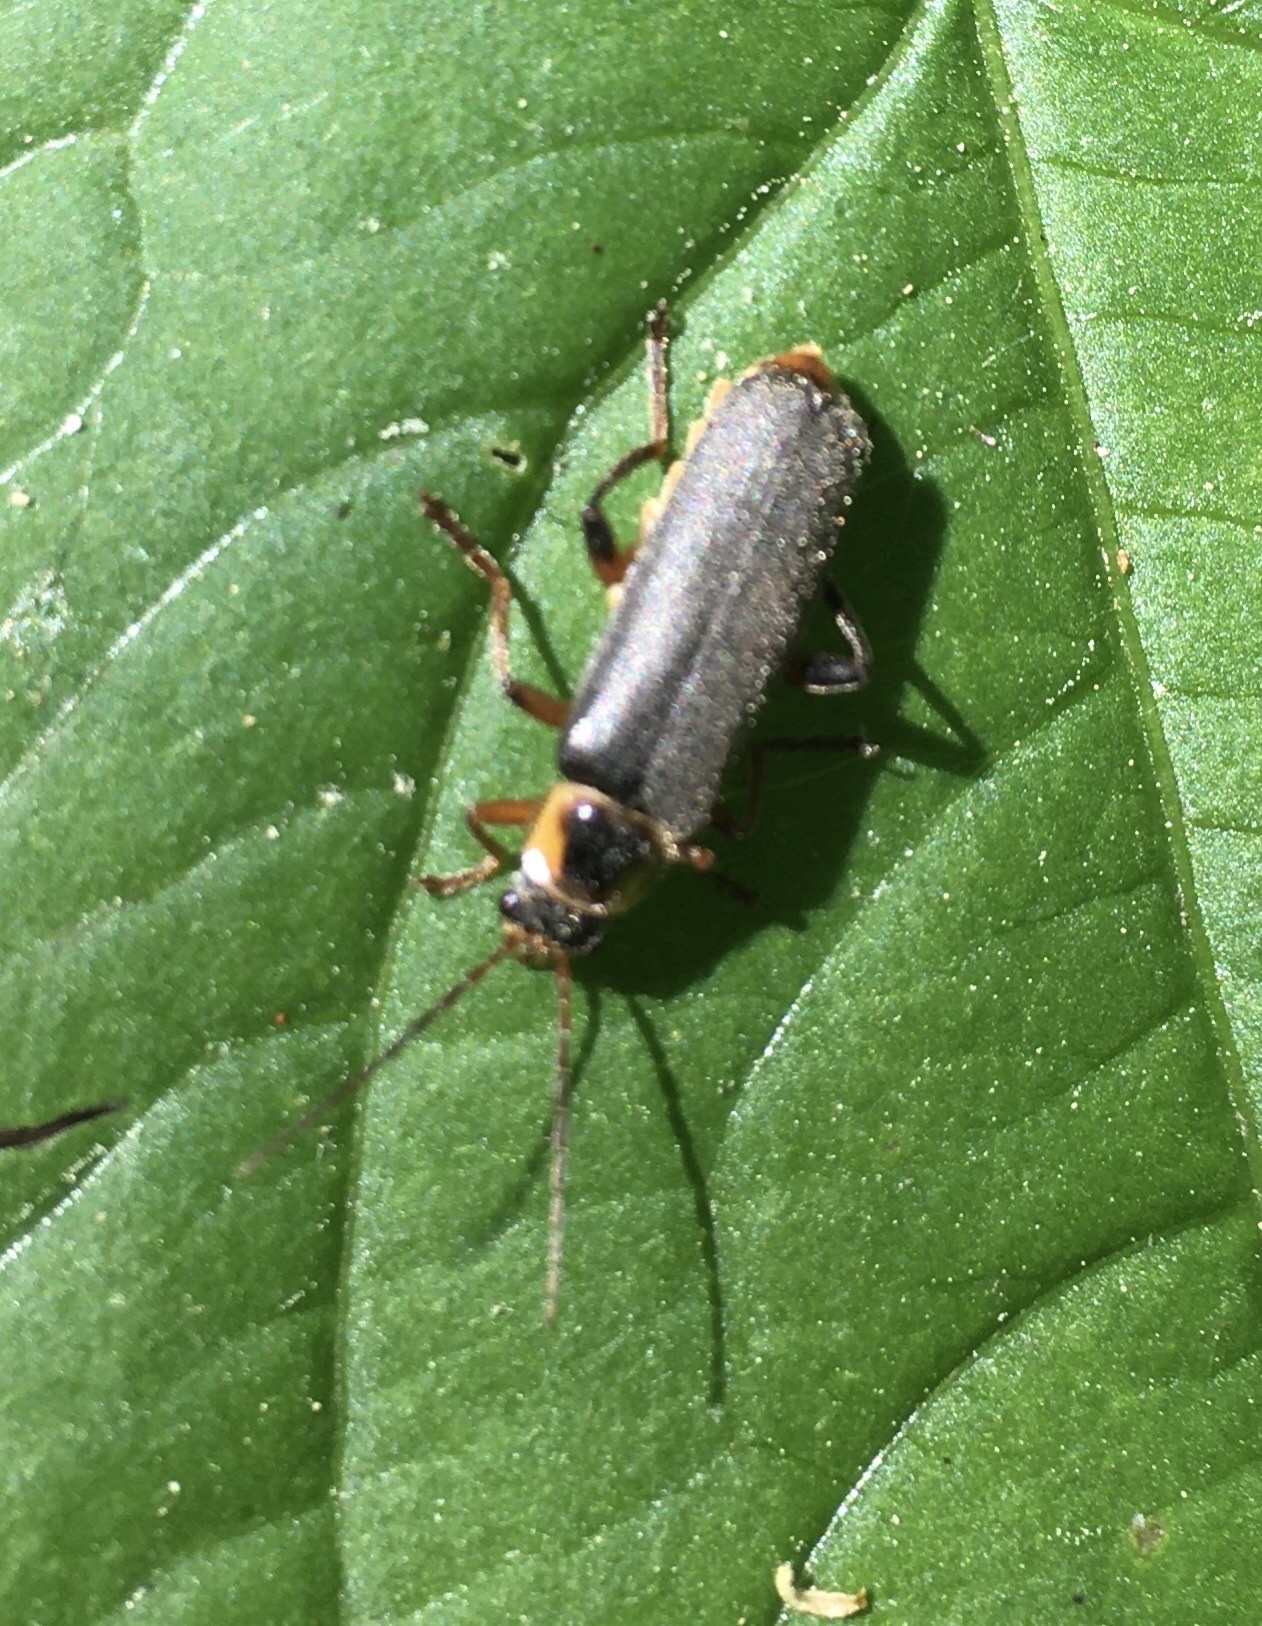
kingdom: Animalia
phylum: Arthropoda
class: Insecta
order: Coleoptera
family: Cantharidae
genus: Cantharis
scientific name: Cantharis nigricans
